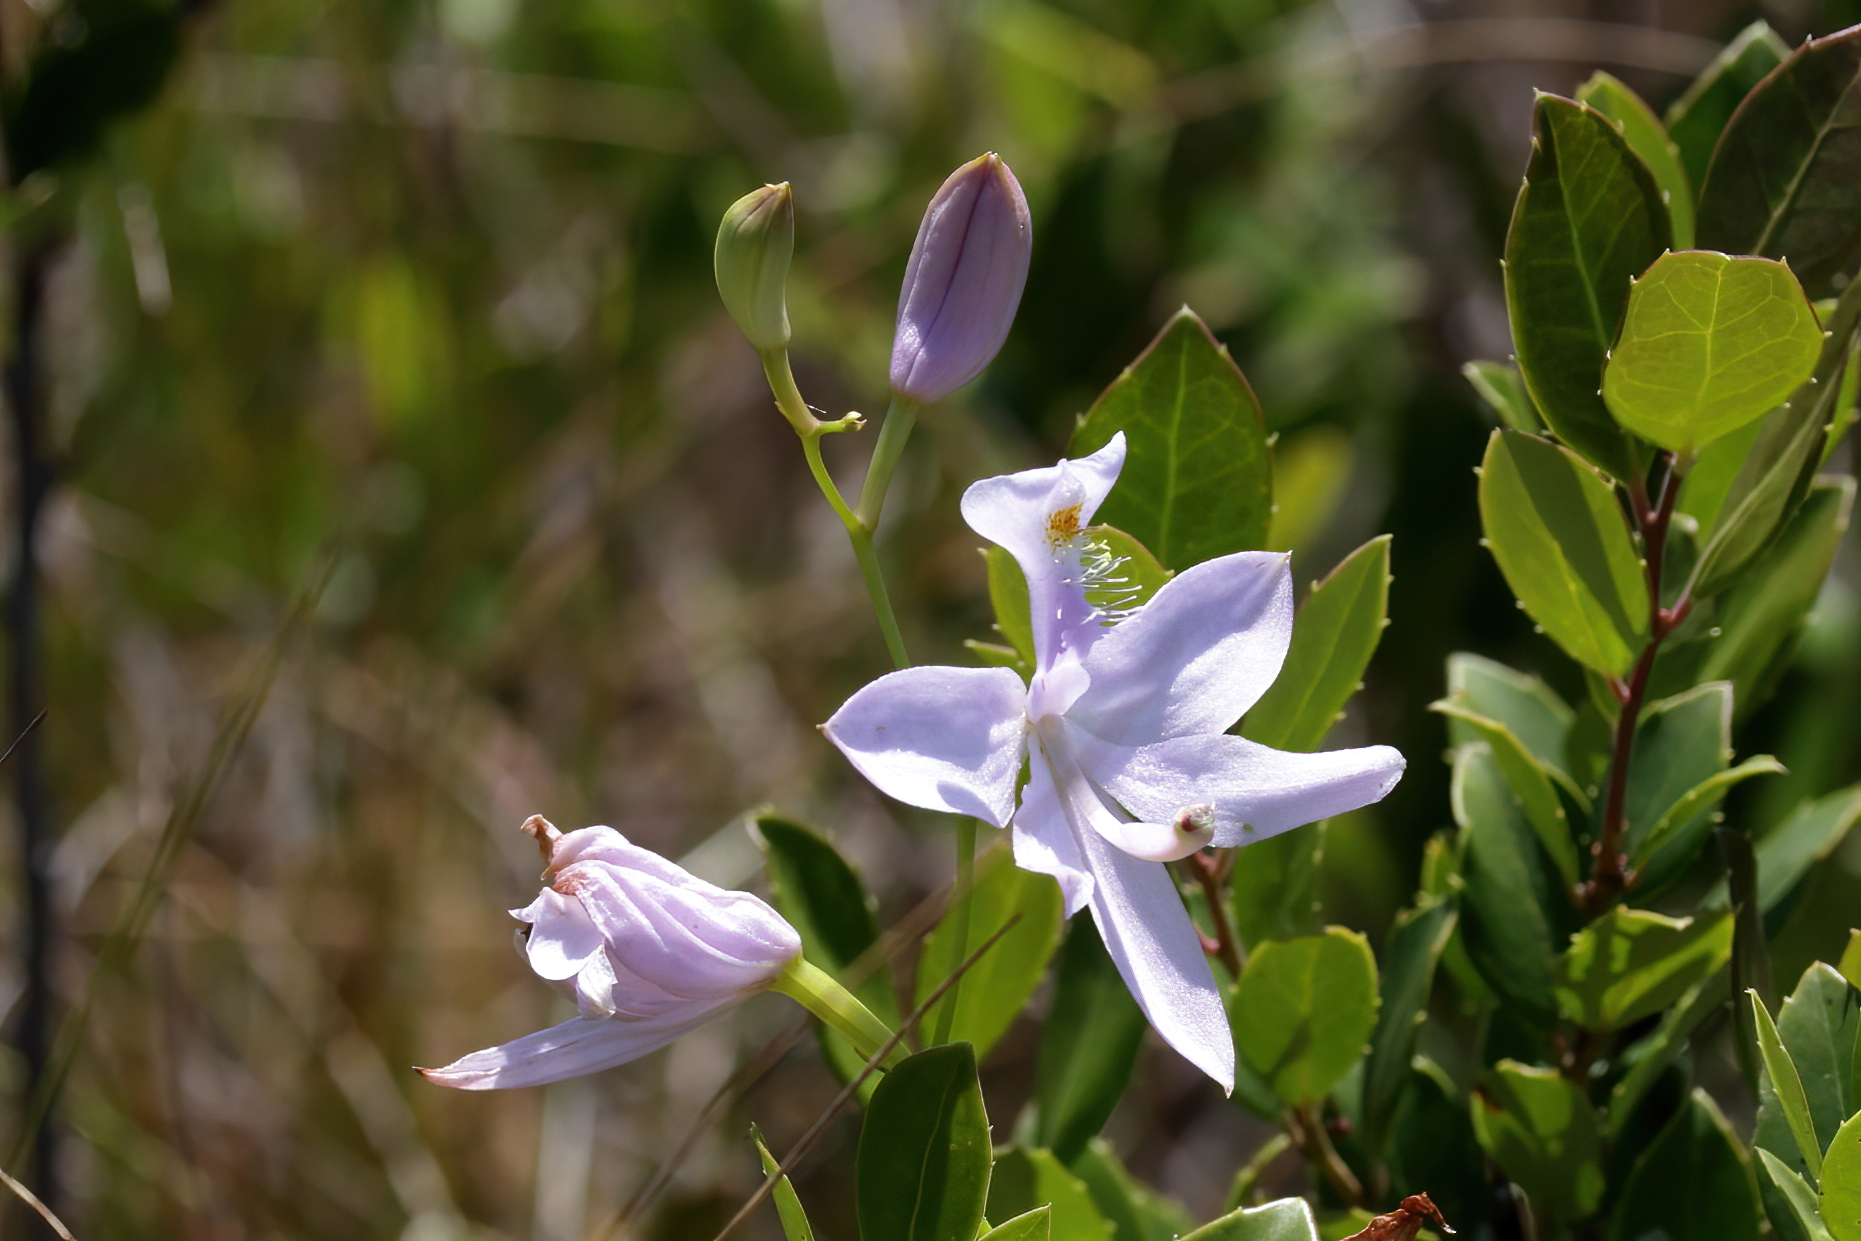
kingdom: Plantae
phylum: Tracheophyta
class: Liliopsida
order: Asparagales
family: Orchidaceae
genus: Calopogon
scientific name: Calopogon tuberosus
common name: Grass-pink
